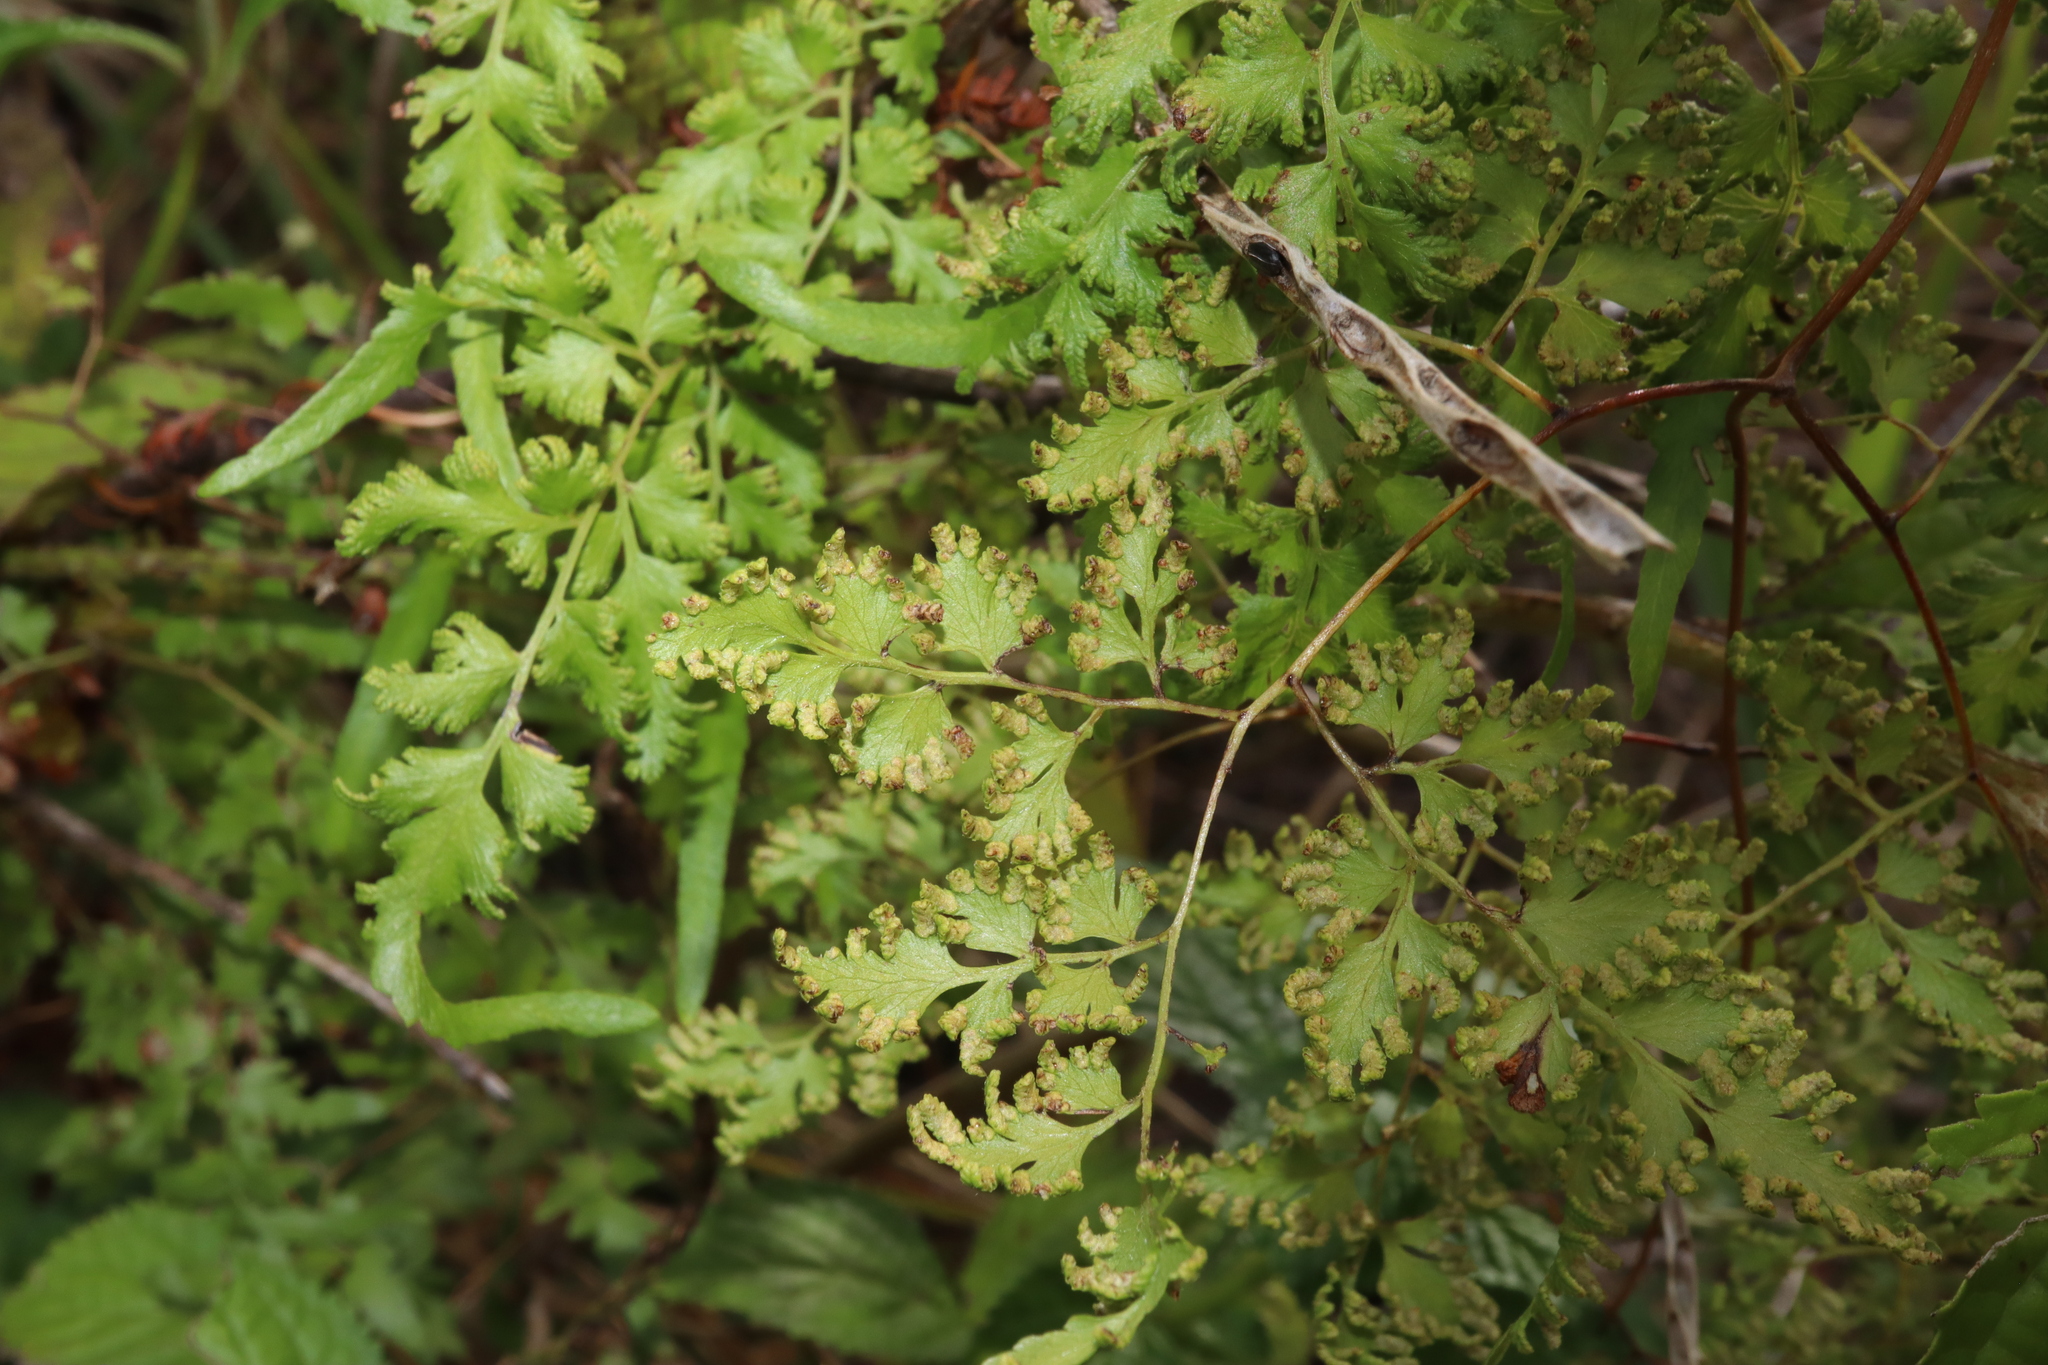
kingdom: Plantae
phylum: Tracheophyta
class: Polypodiopsida
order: Schizaeales
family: Lygodiaceae
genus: Lygodium
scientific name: Lygodium japonicum
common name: Japanese climbing fern
